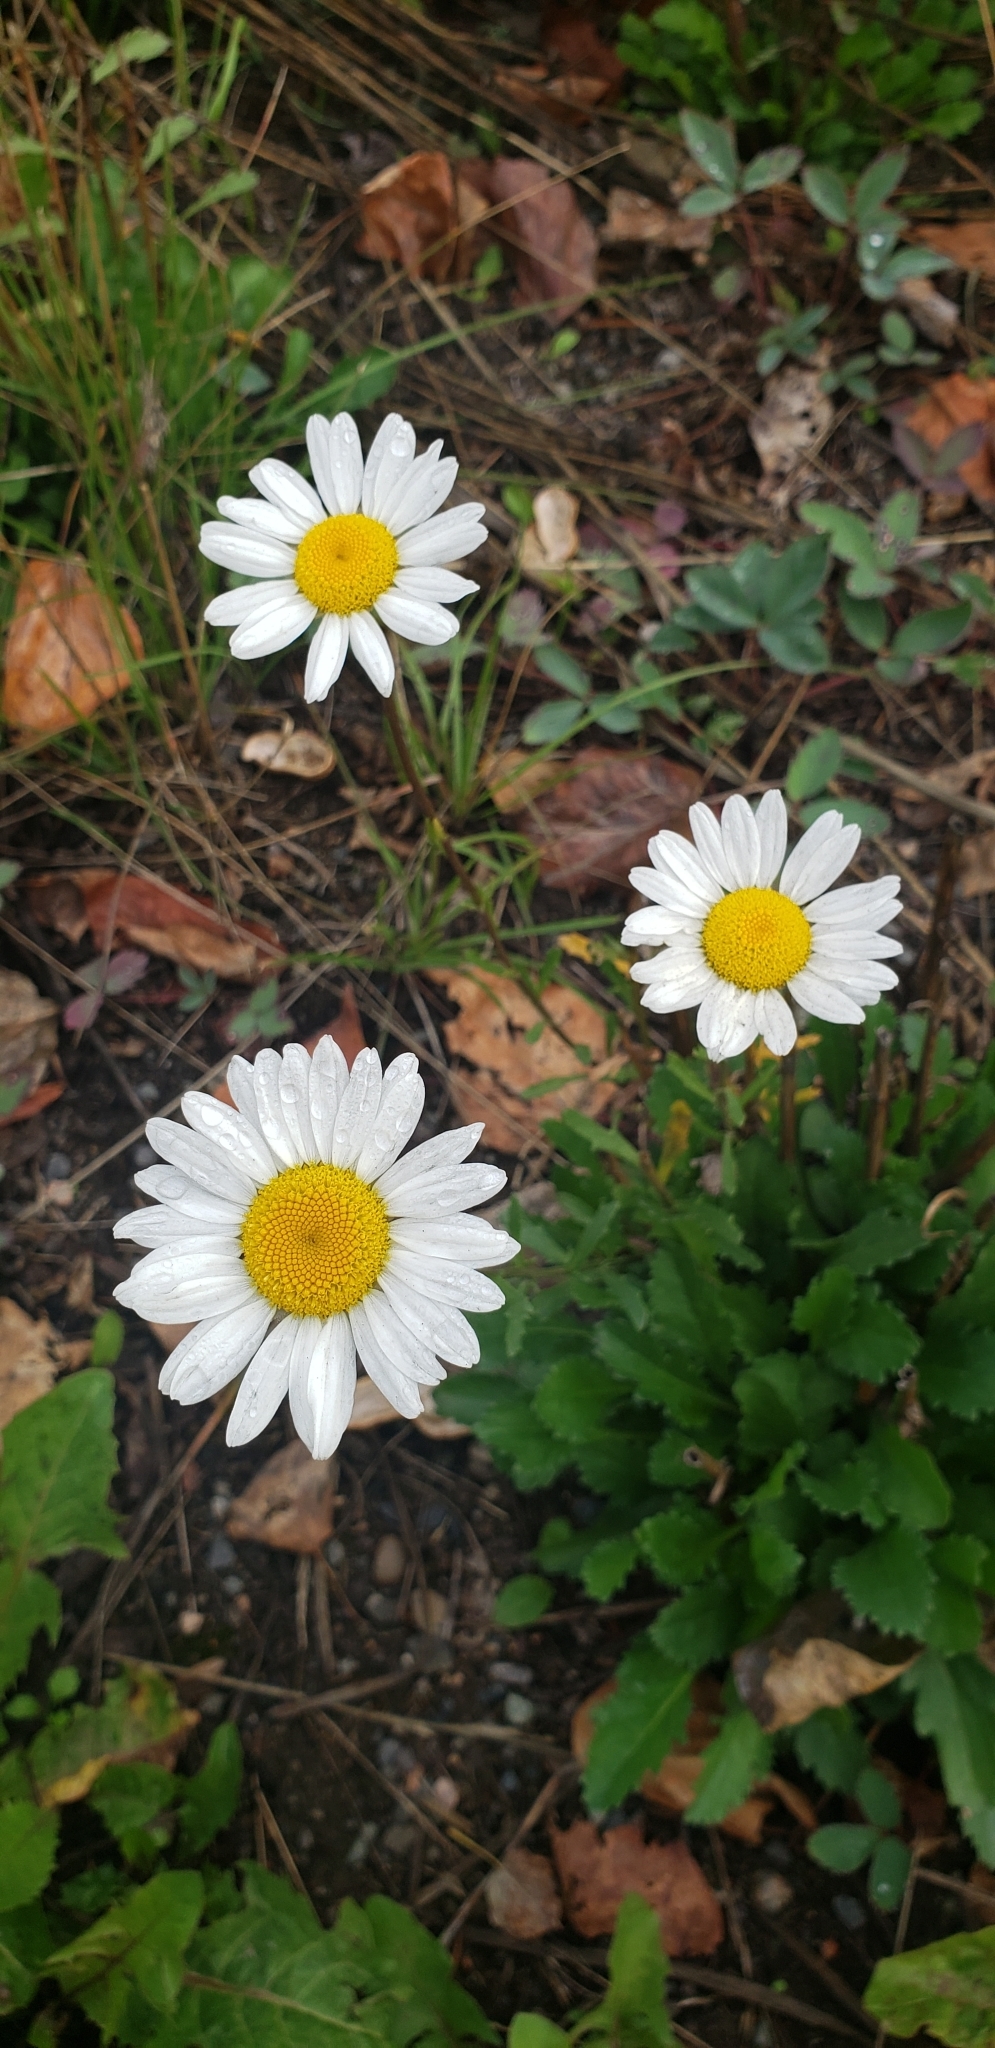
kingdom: Plantae
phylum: Tracheophyta
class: Magnoliopsida
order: Asterales
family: Asteraceae
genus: Leucanthemum
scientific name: Leucanthemum maximum
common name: Max chrysanthemum
